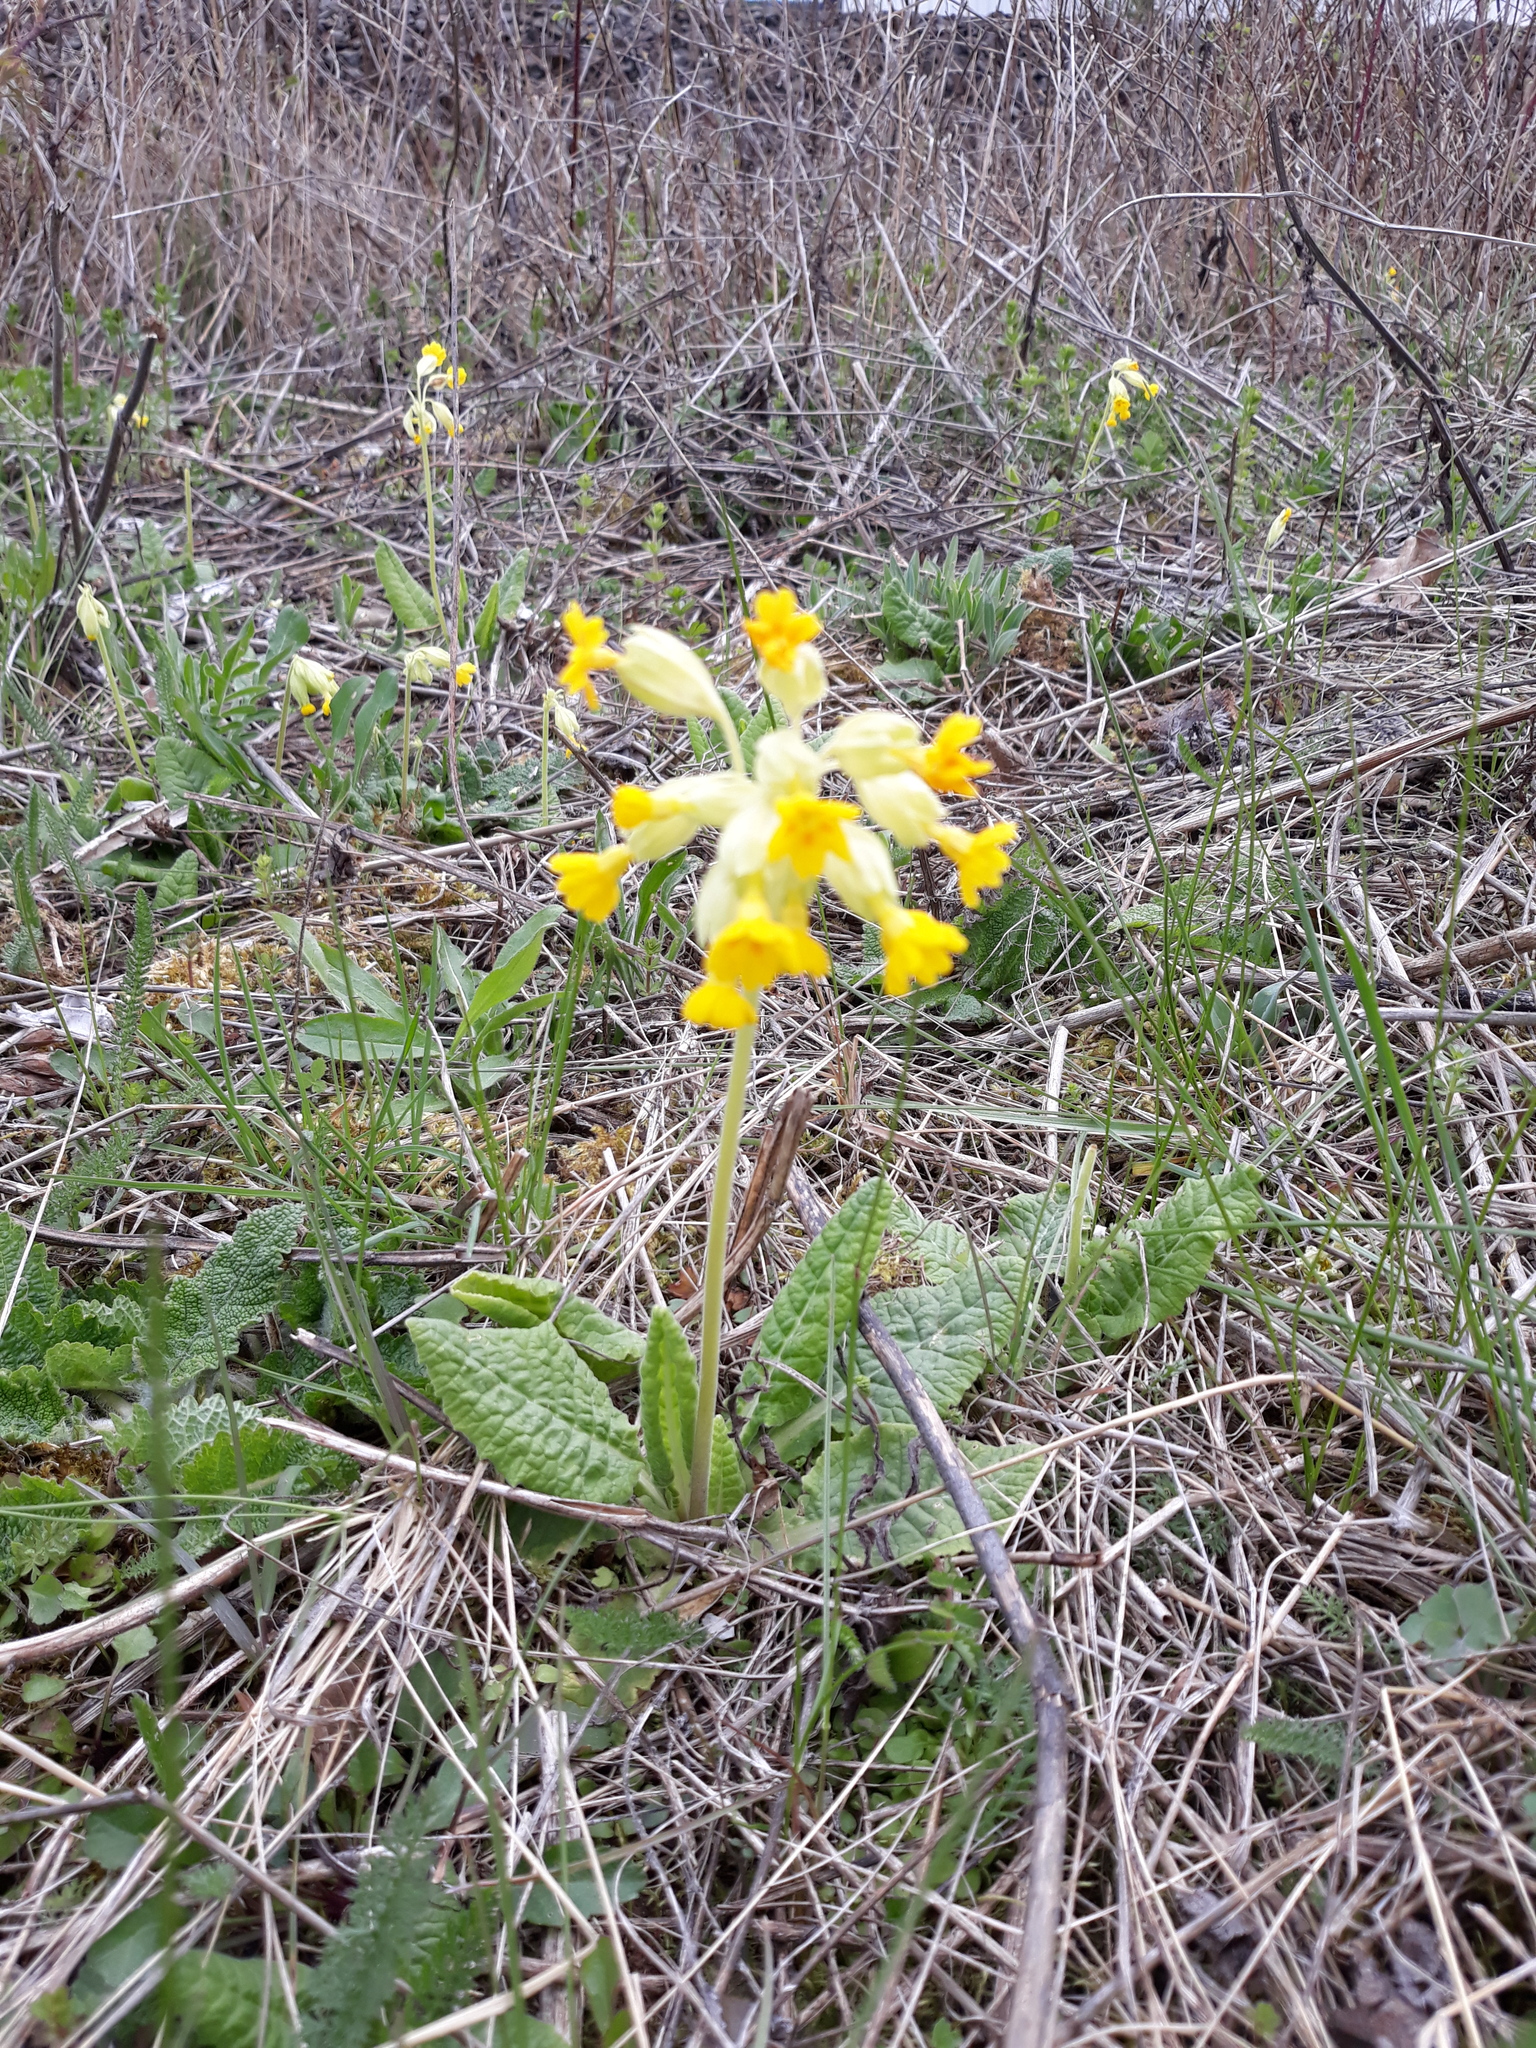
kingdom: Plantae
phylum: Tracheophyta
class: Magnoliopsida
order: Ericales
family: Primulaceae
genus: Primula
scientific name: Primula veris
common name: Cowslip
